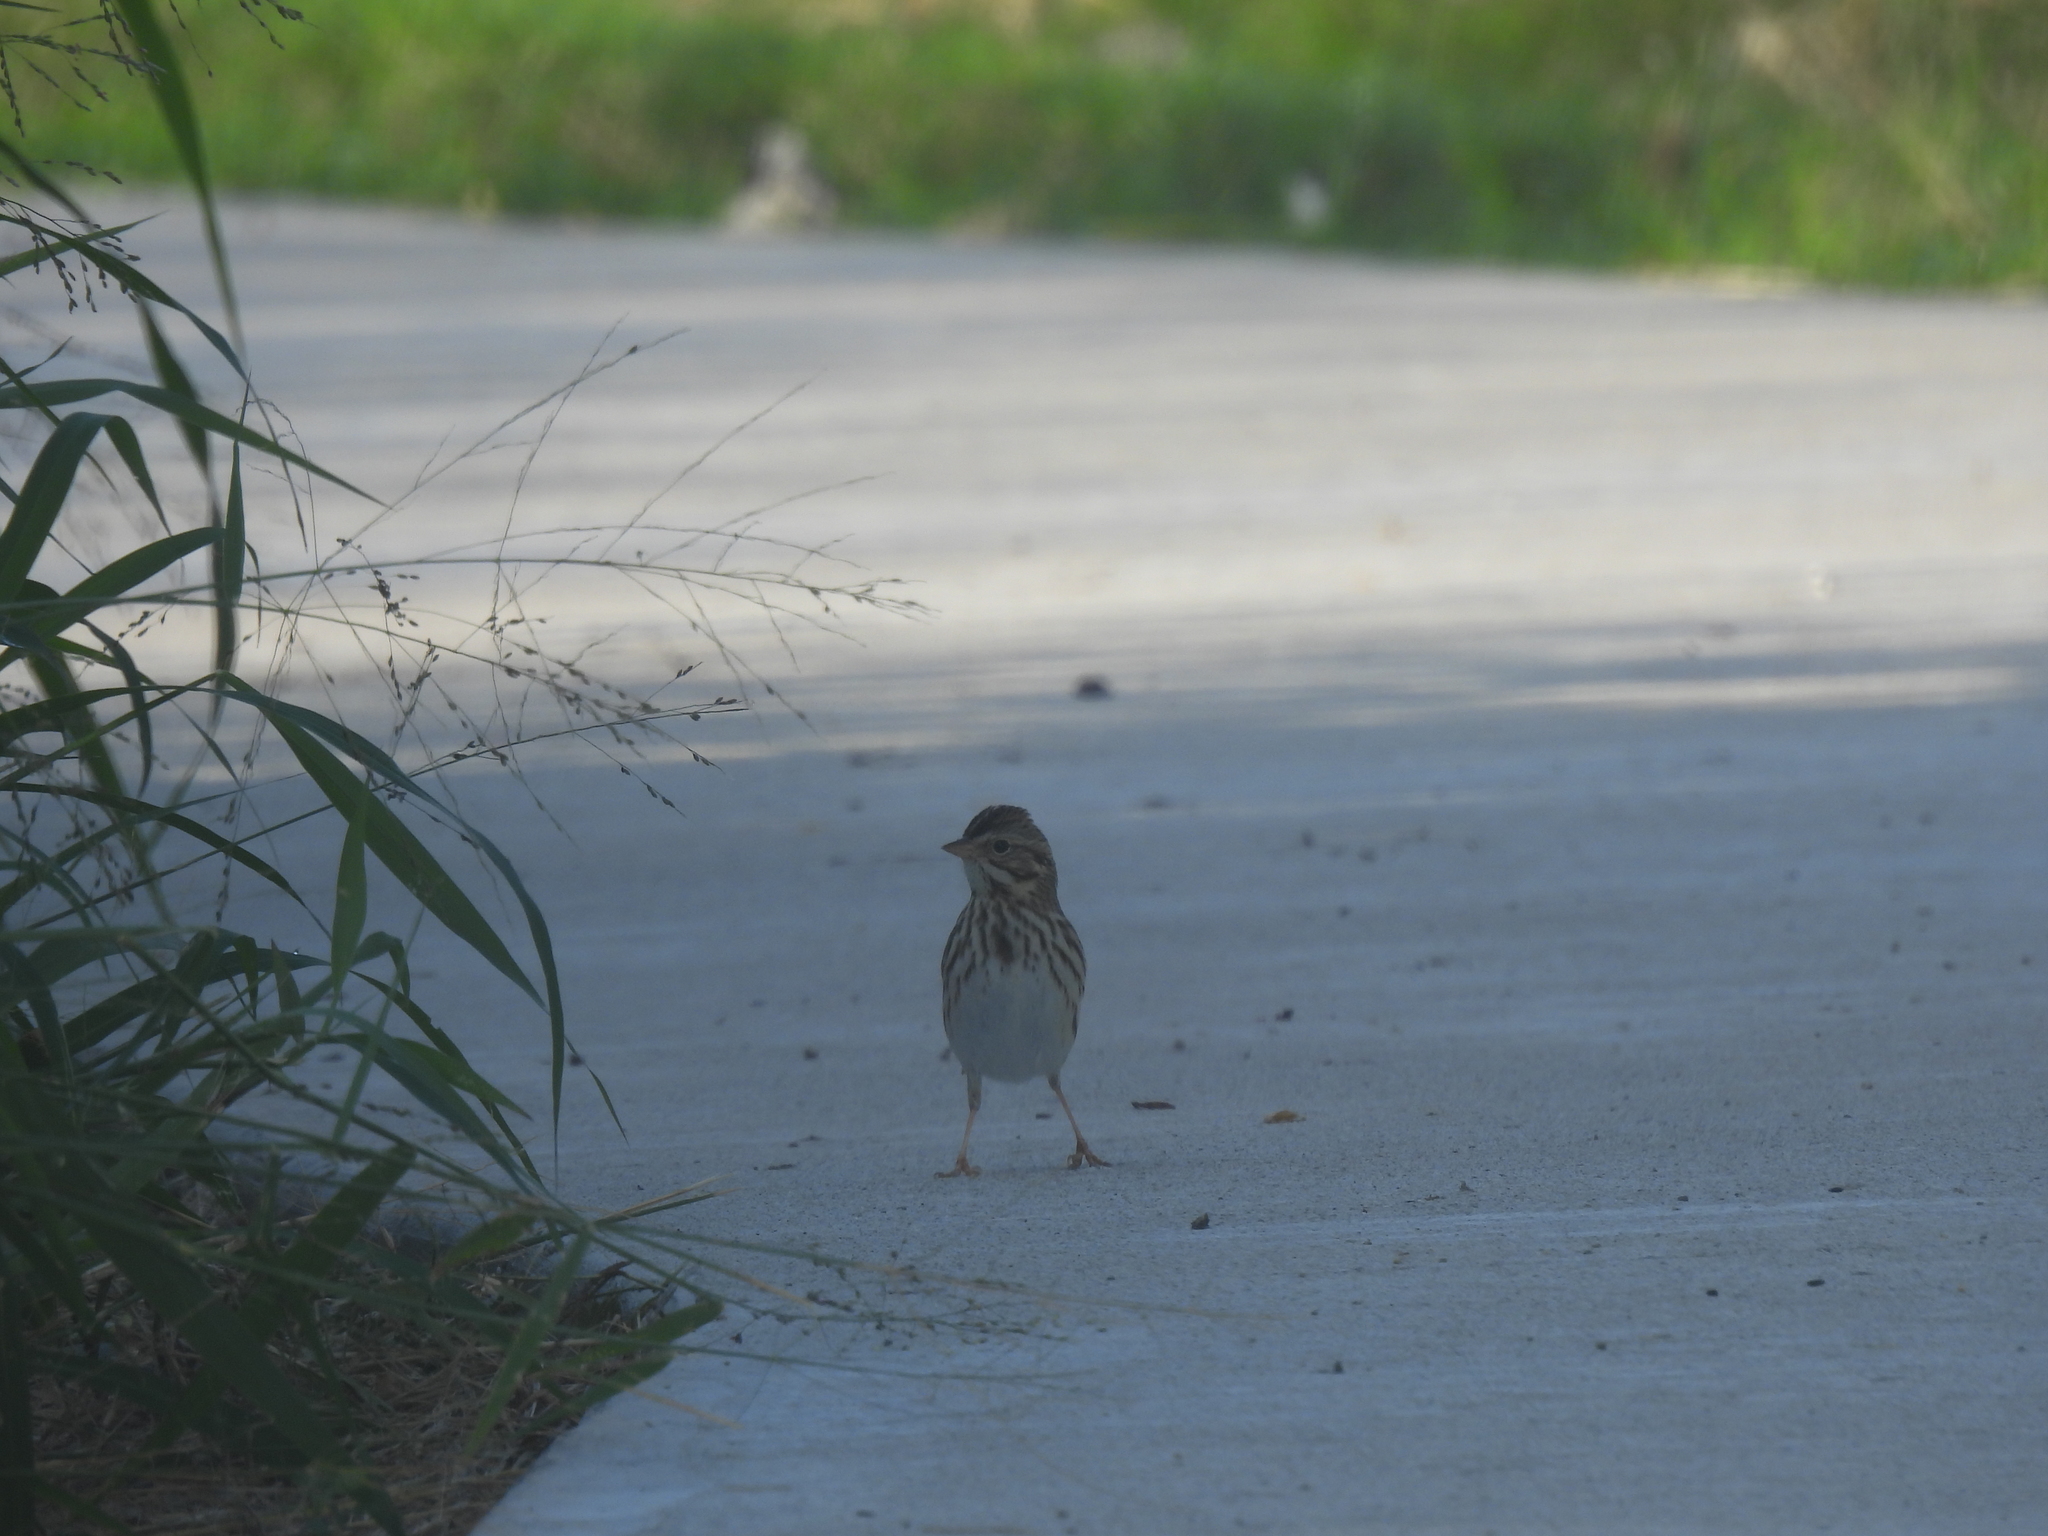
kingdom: Animalia
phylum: Chordata
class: Aves
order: Passeriformes
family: Passerellidae
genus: Passerculus
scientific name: Passerculus sandwichensis
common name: Savannah sparrow
